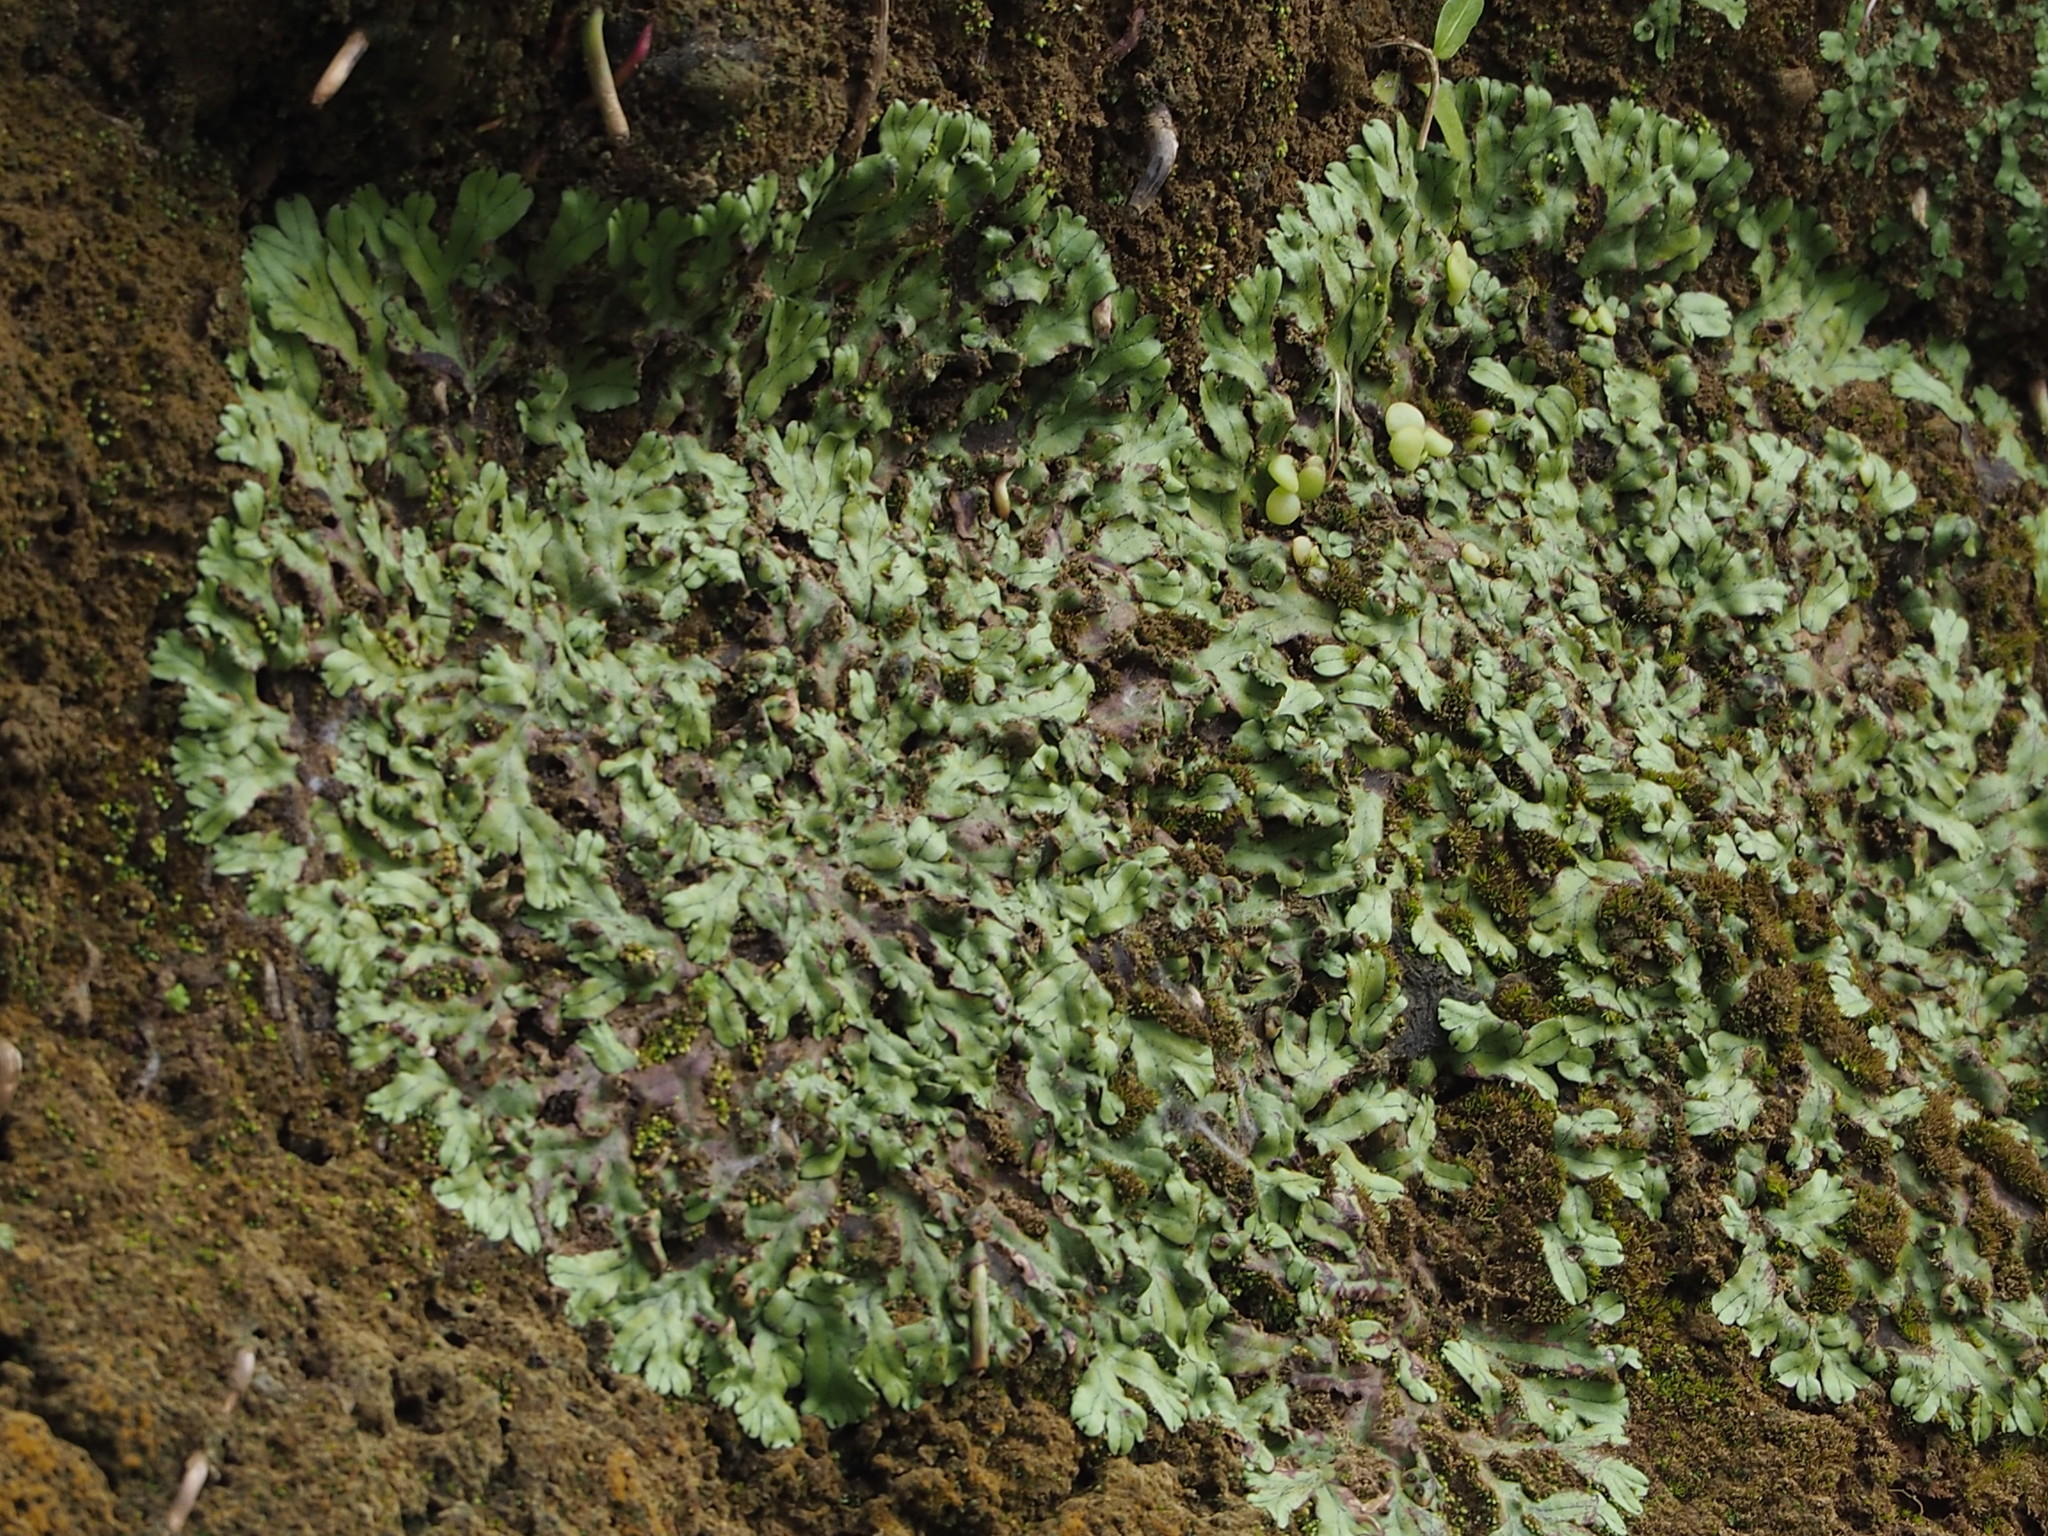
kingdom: Plantae
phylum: Marchantiophyta
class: Marchantiopsida
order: Marchantiales
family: Marchantiaceae
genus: Marchantia
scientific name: Marchantia pinnata
